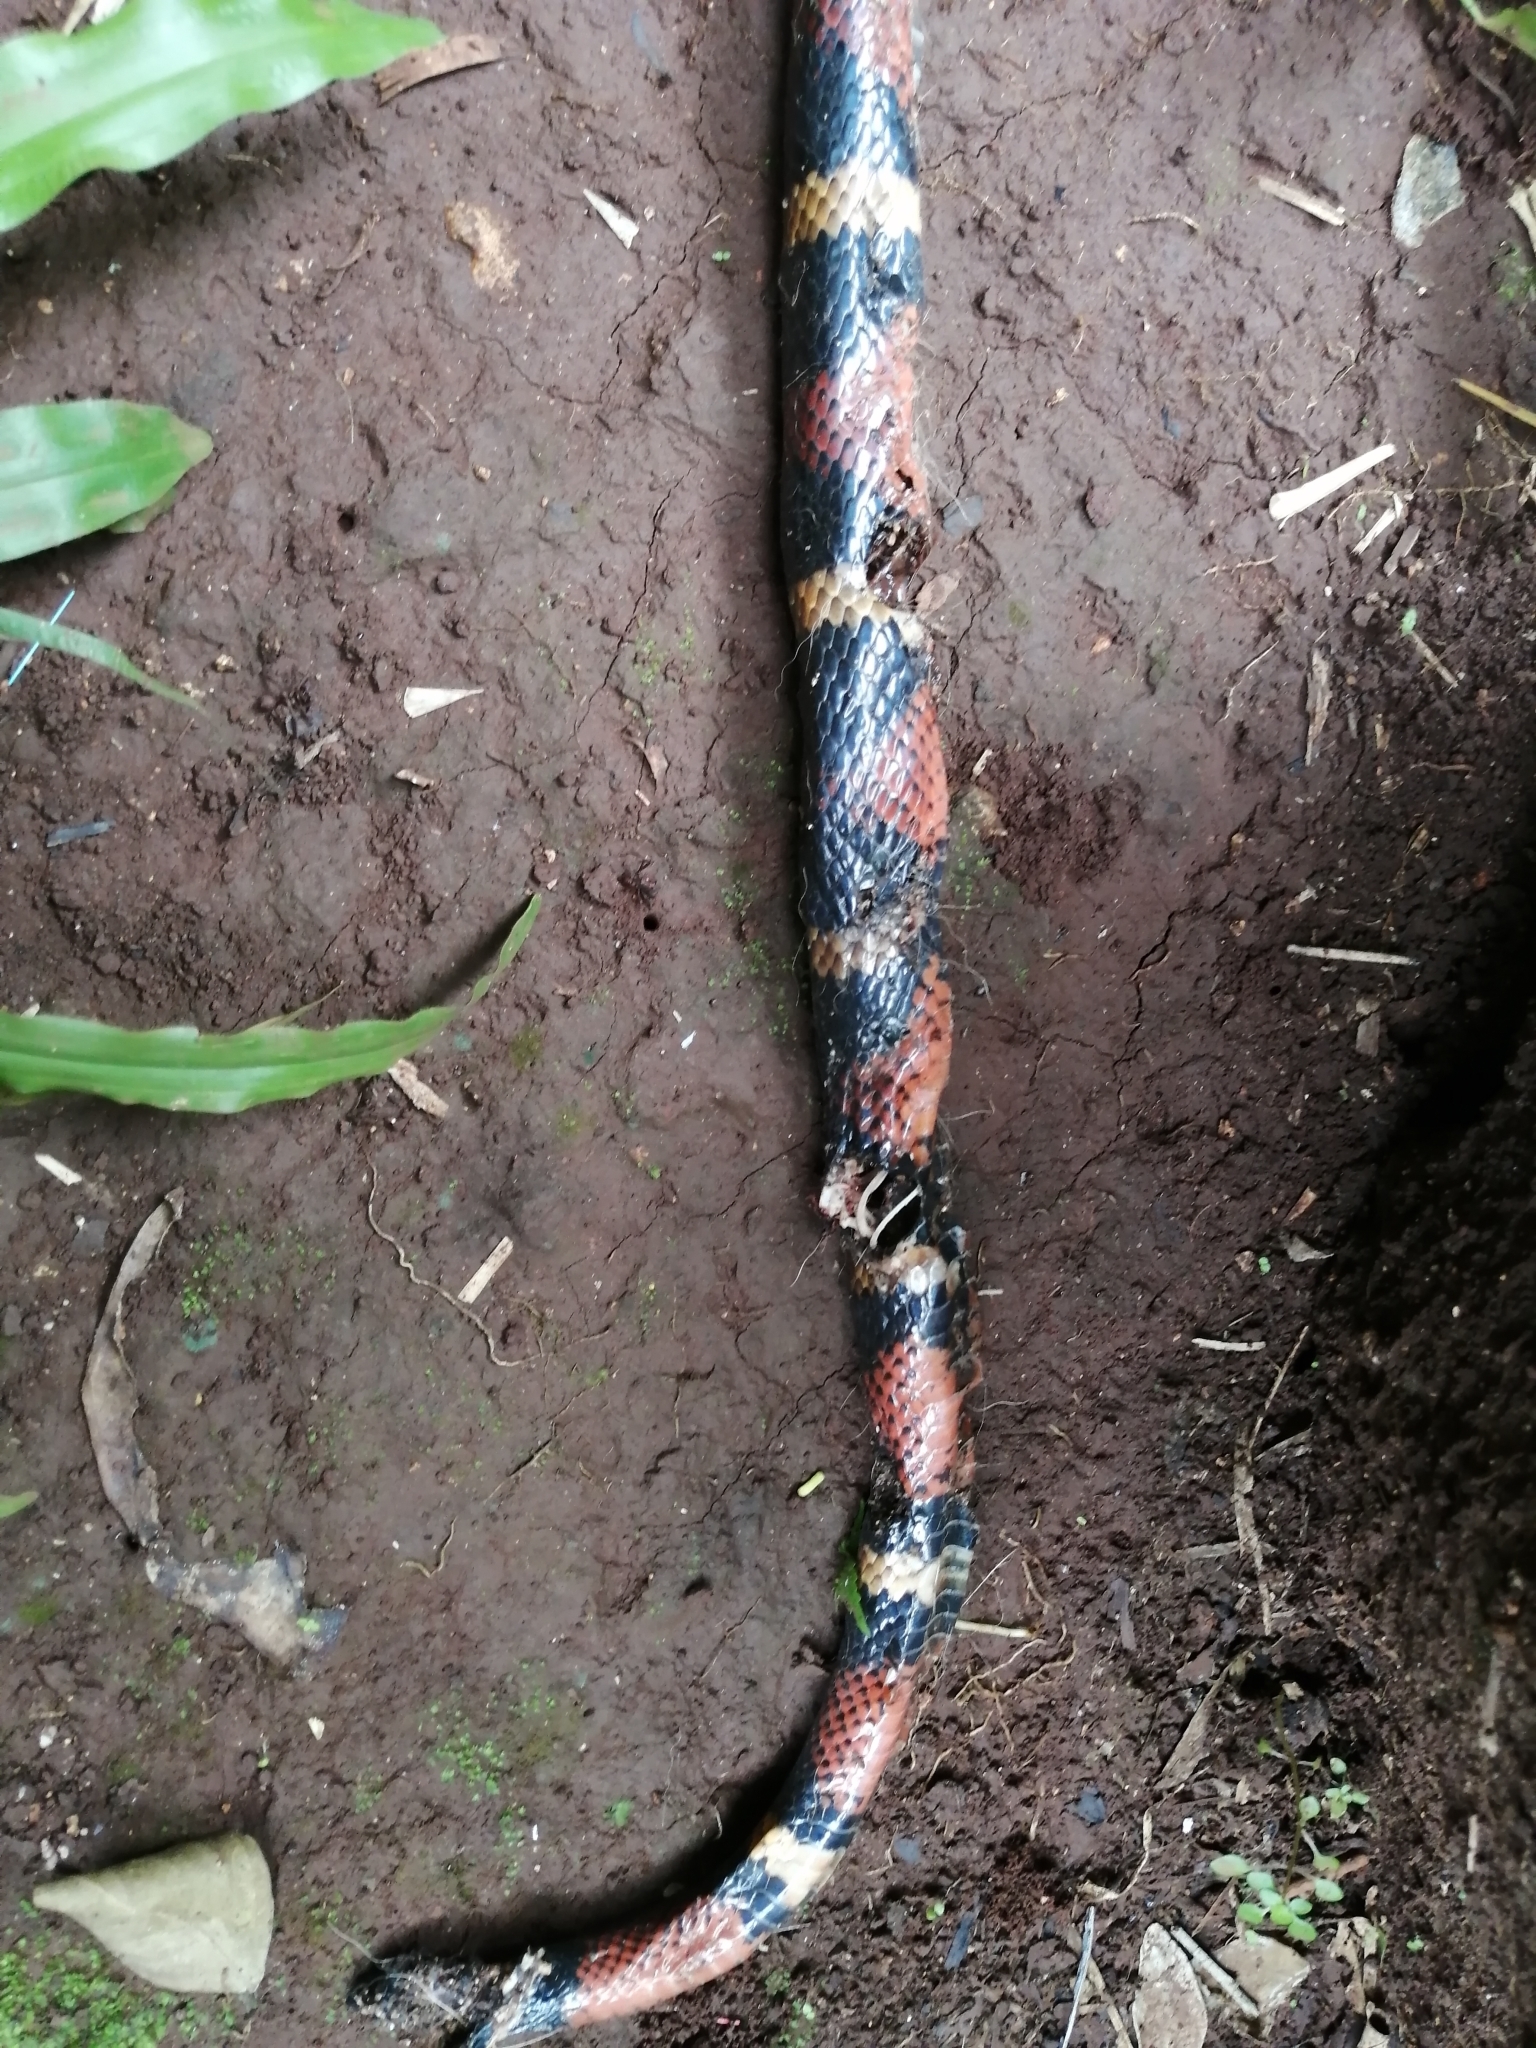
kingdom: Animalia
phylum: Chordata
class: Squamata
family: Colubridae
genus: Lampropeltis
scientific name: Lampropeltis abnorma
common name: Honduran milk snake
